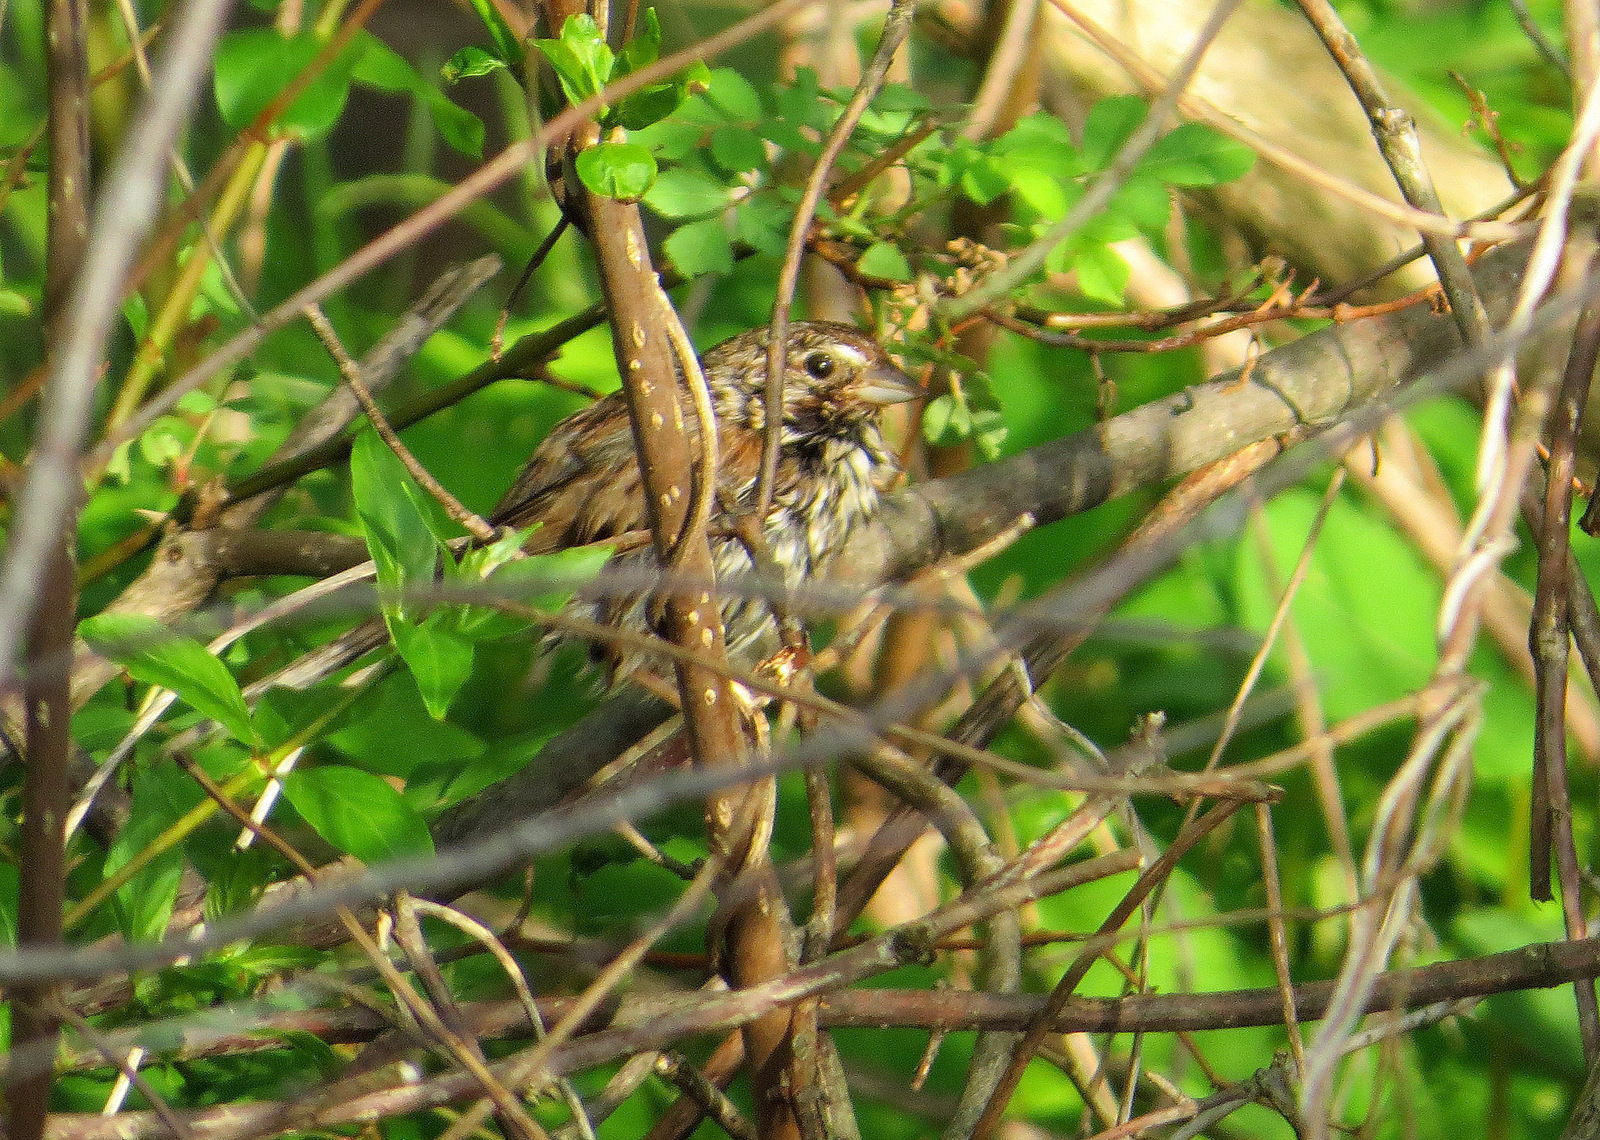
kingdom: Animalia
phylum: Chordata
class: Aves
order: Passeriformes
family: Passerellidae
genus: Melospiza
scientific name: Melospiza melodia
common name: Song sparrow
